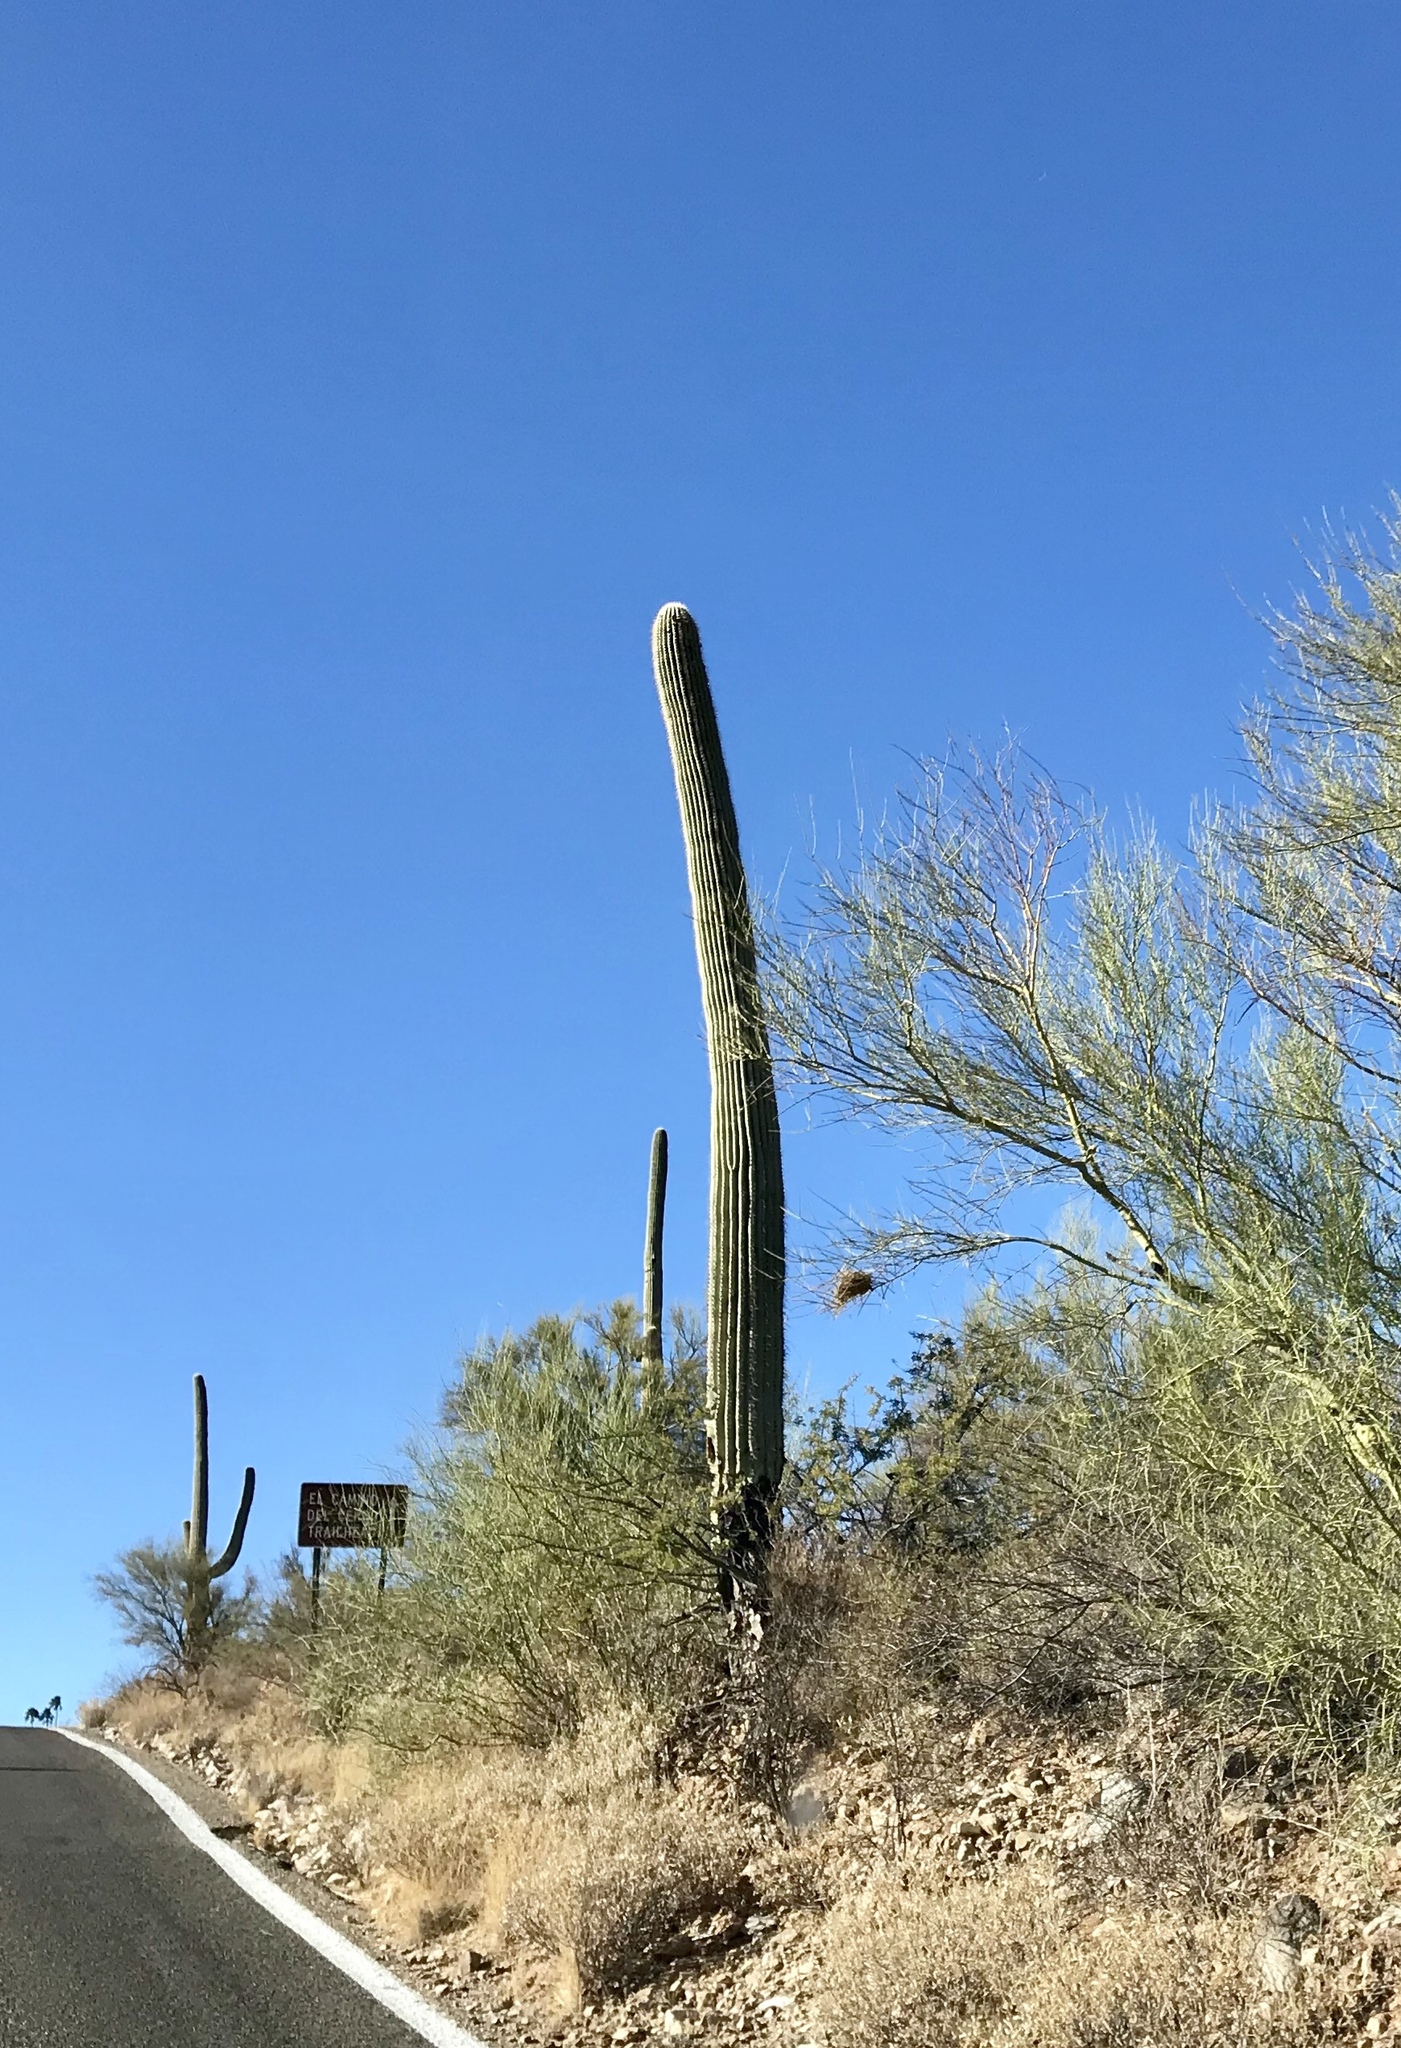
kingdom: Plantae
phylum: Tracheophyta
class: Magnoliopsida
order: Caryophyllales
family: Cactaceae
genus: Carnegiea
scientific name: Carnegiea gigantea
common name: Saguaro
